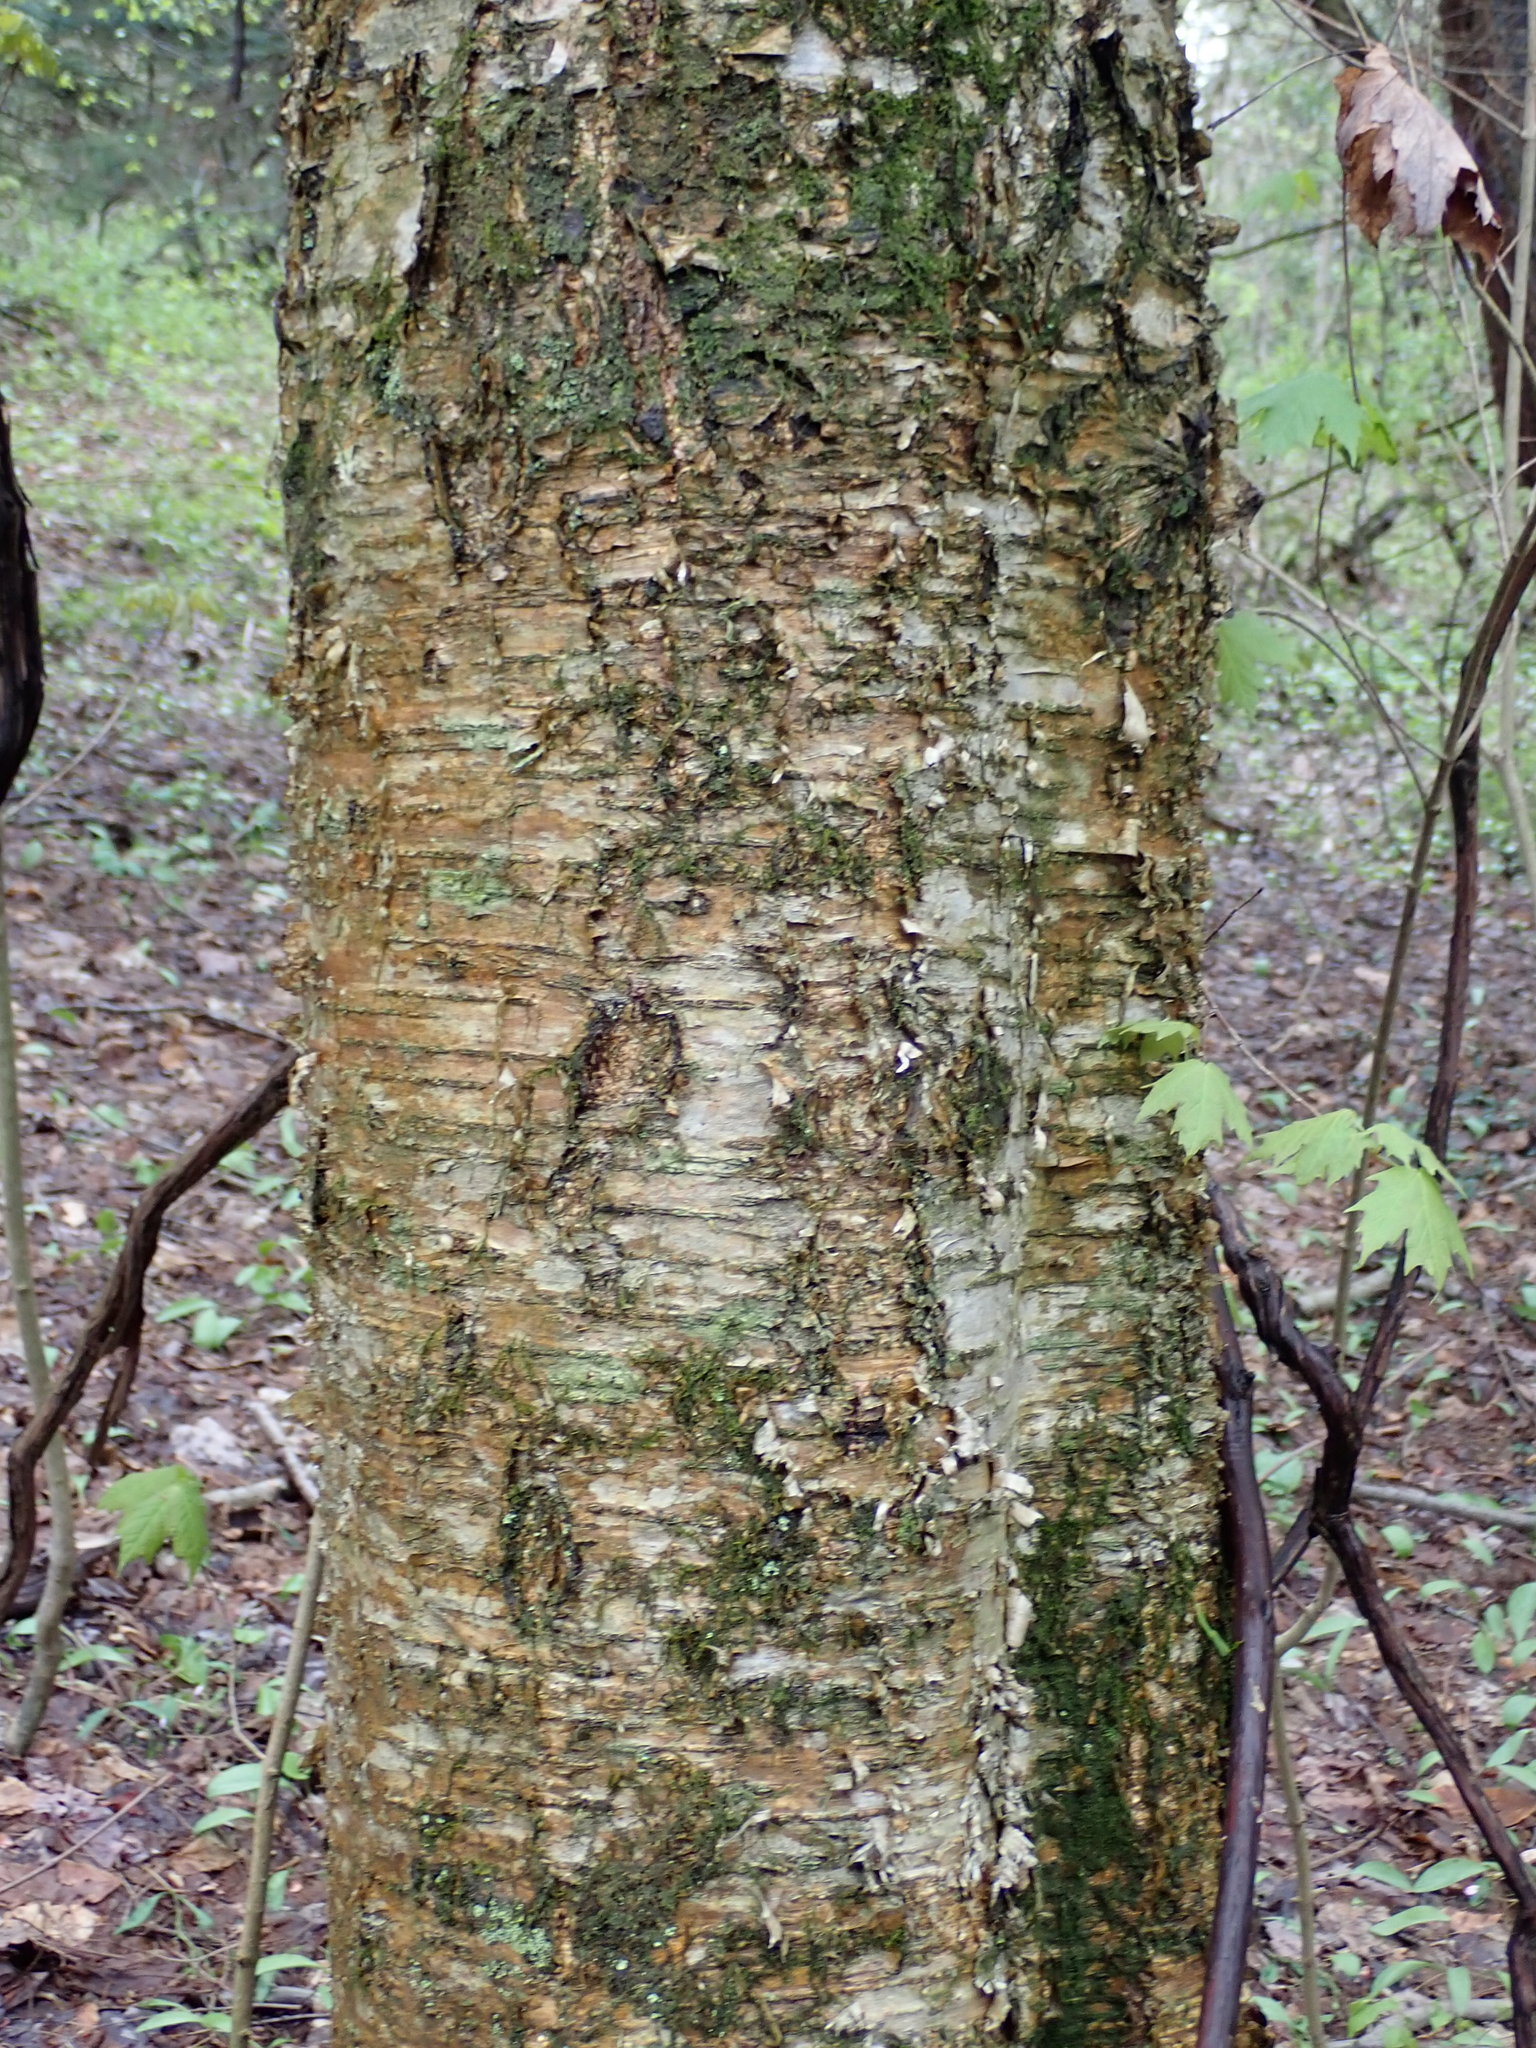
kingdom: Plantae
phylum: Tracheophyta
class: Magnoliopsida
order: Fagales
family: Betulaceae
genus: Betula
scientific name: Betula alleghaniensis
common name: Yellow birch
